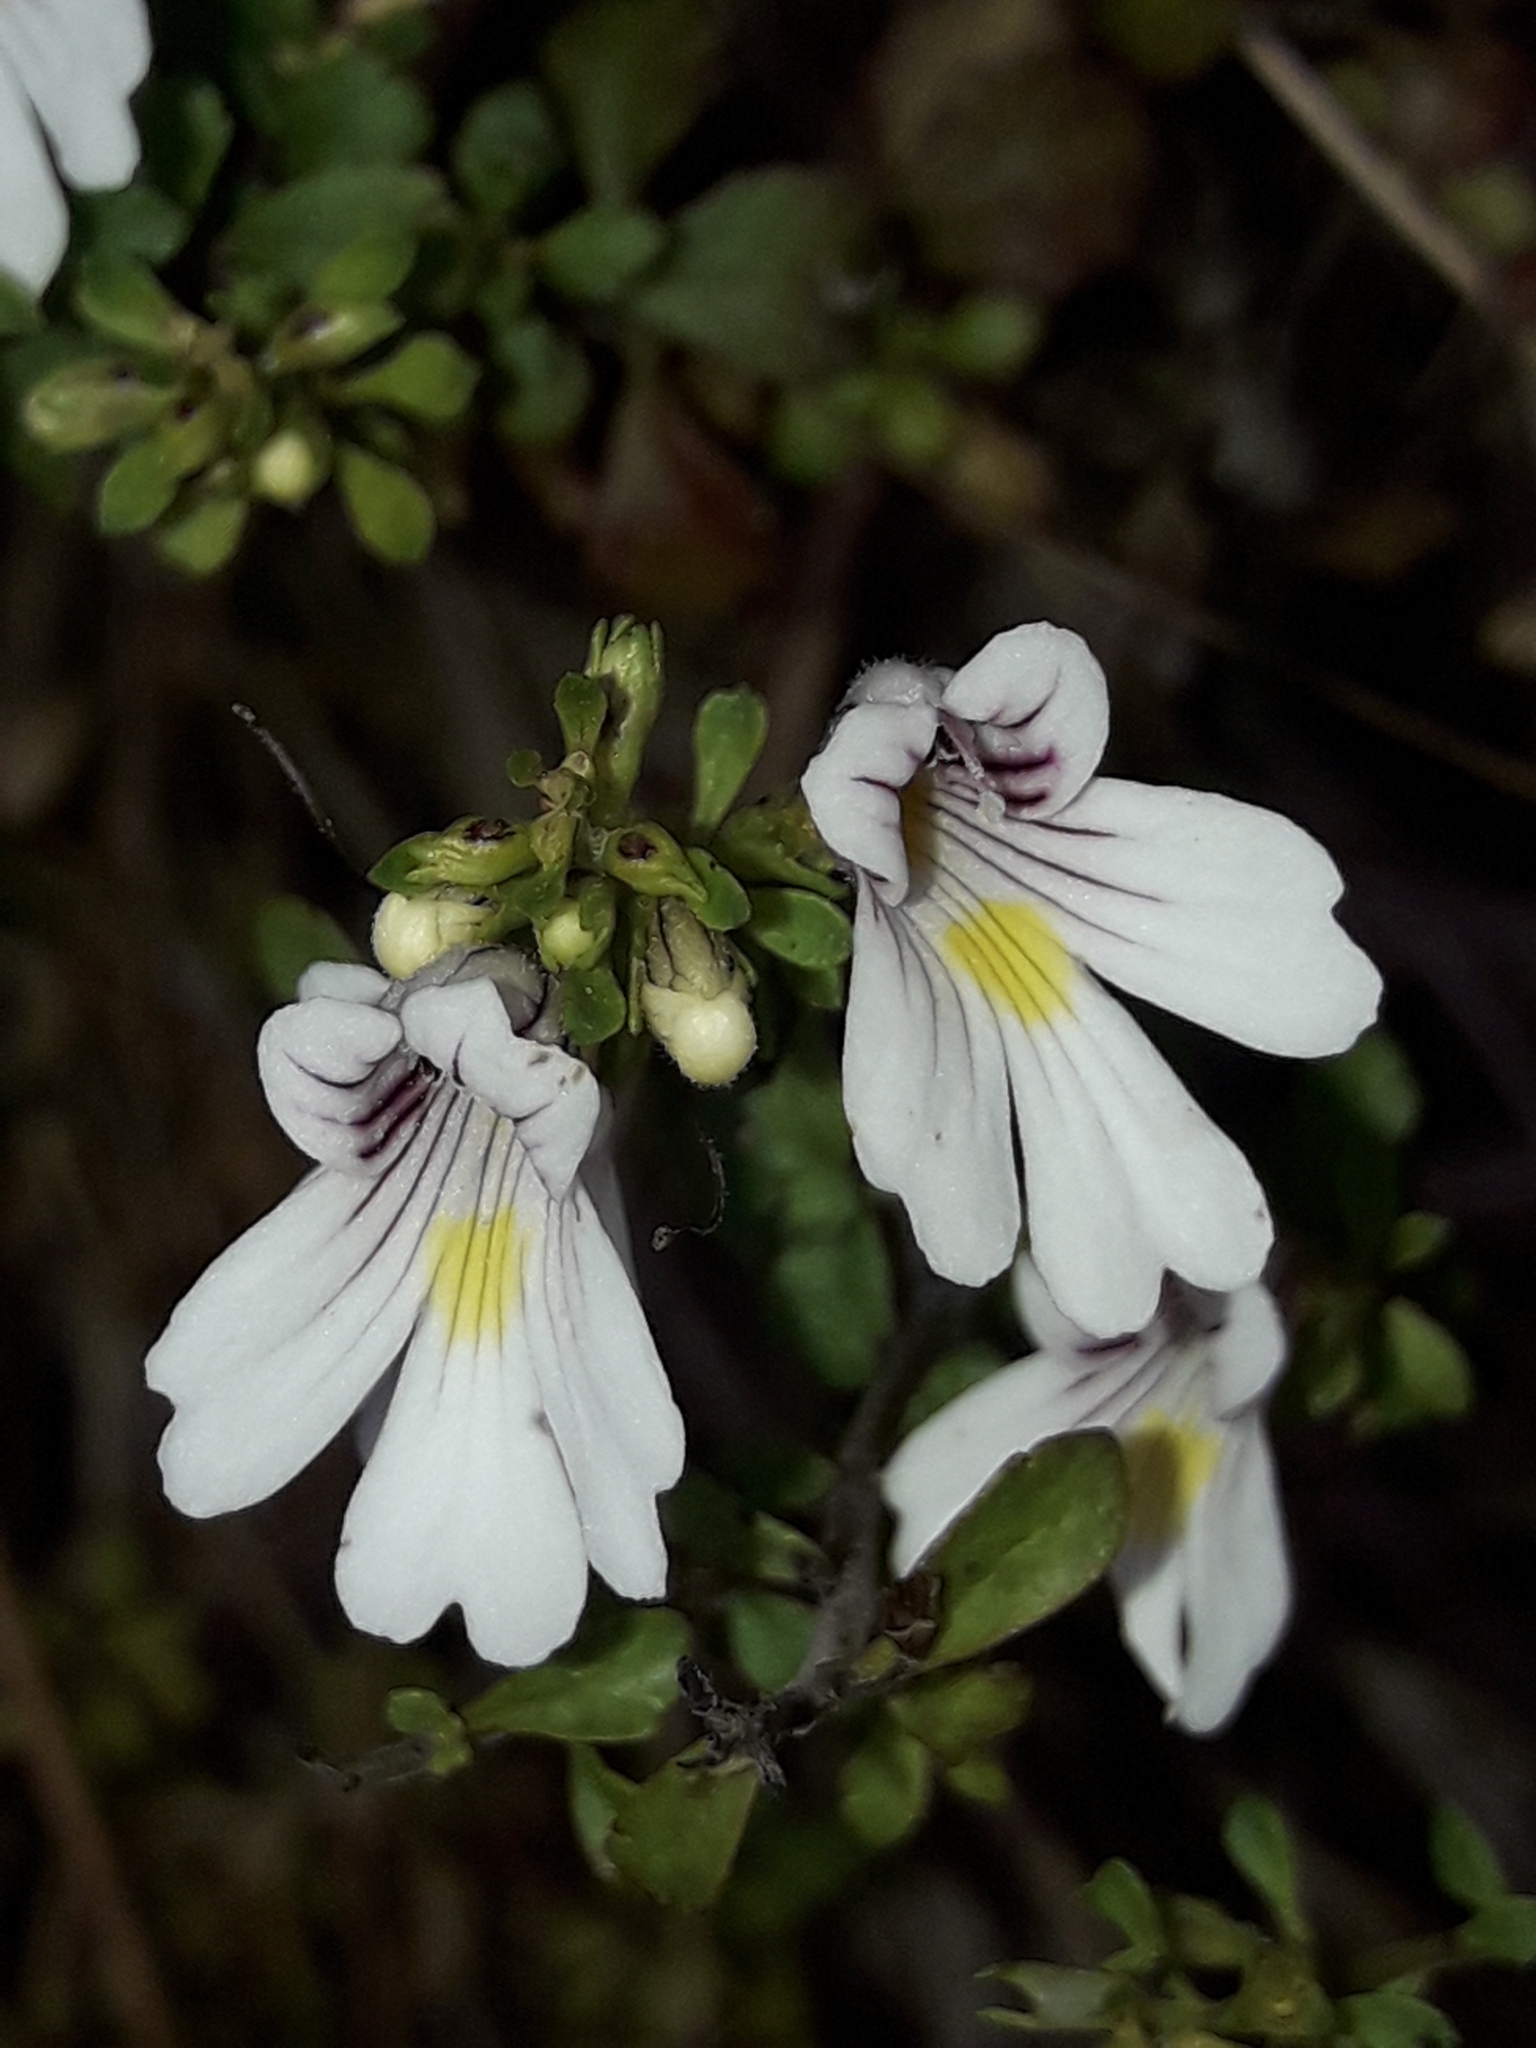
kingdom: Plantae
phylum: Tracheophyta
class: Magnoliopsida
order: Lamiales
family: Orobanchaceae
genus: Euphrasia
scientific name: Euphrasia cuneata
